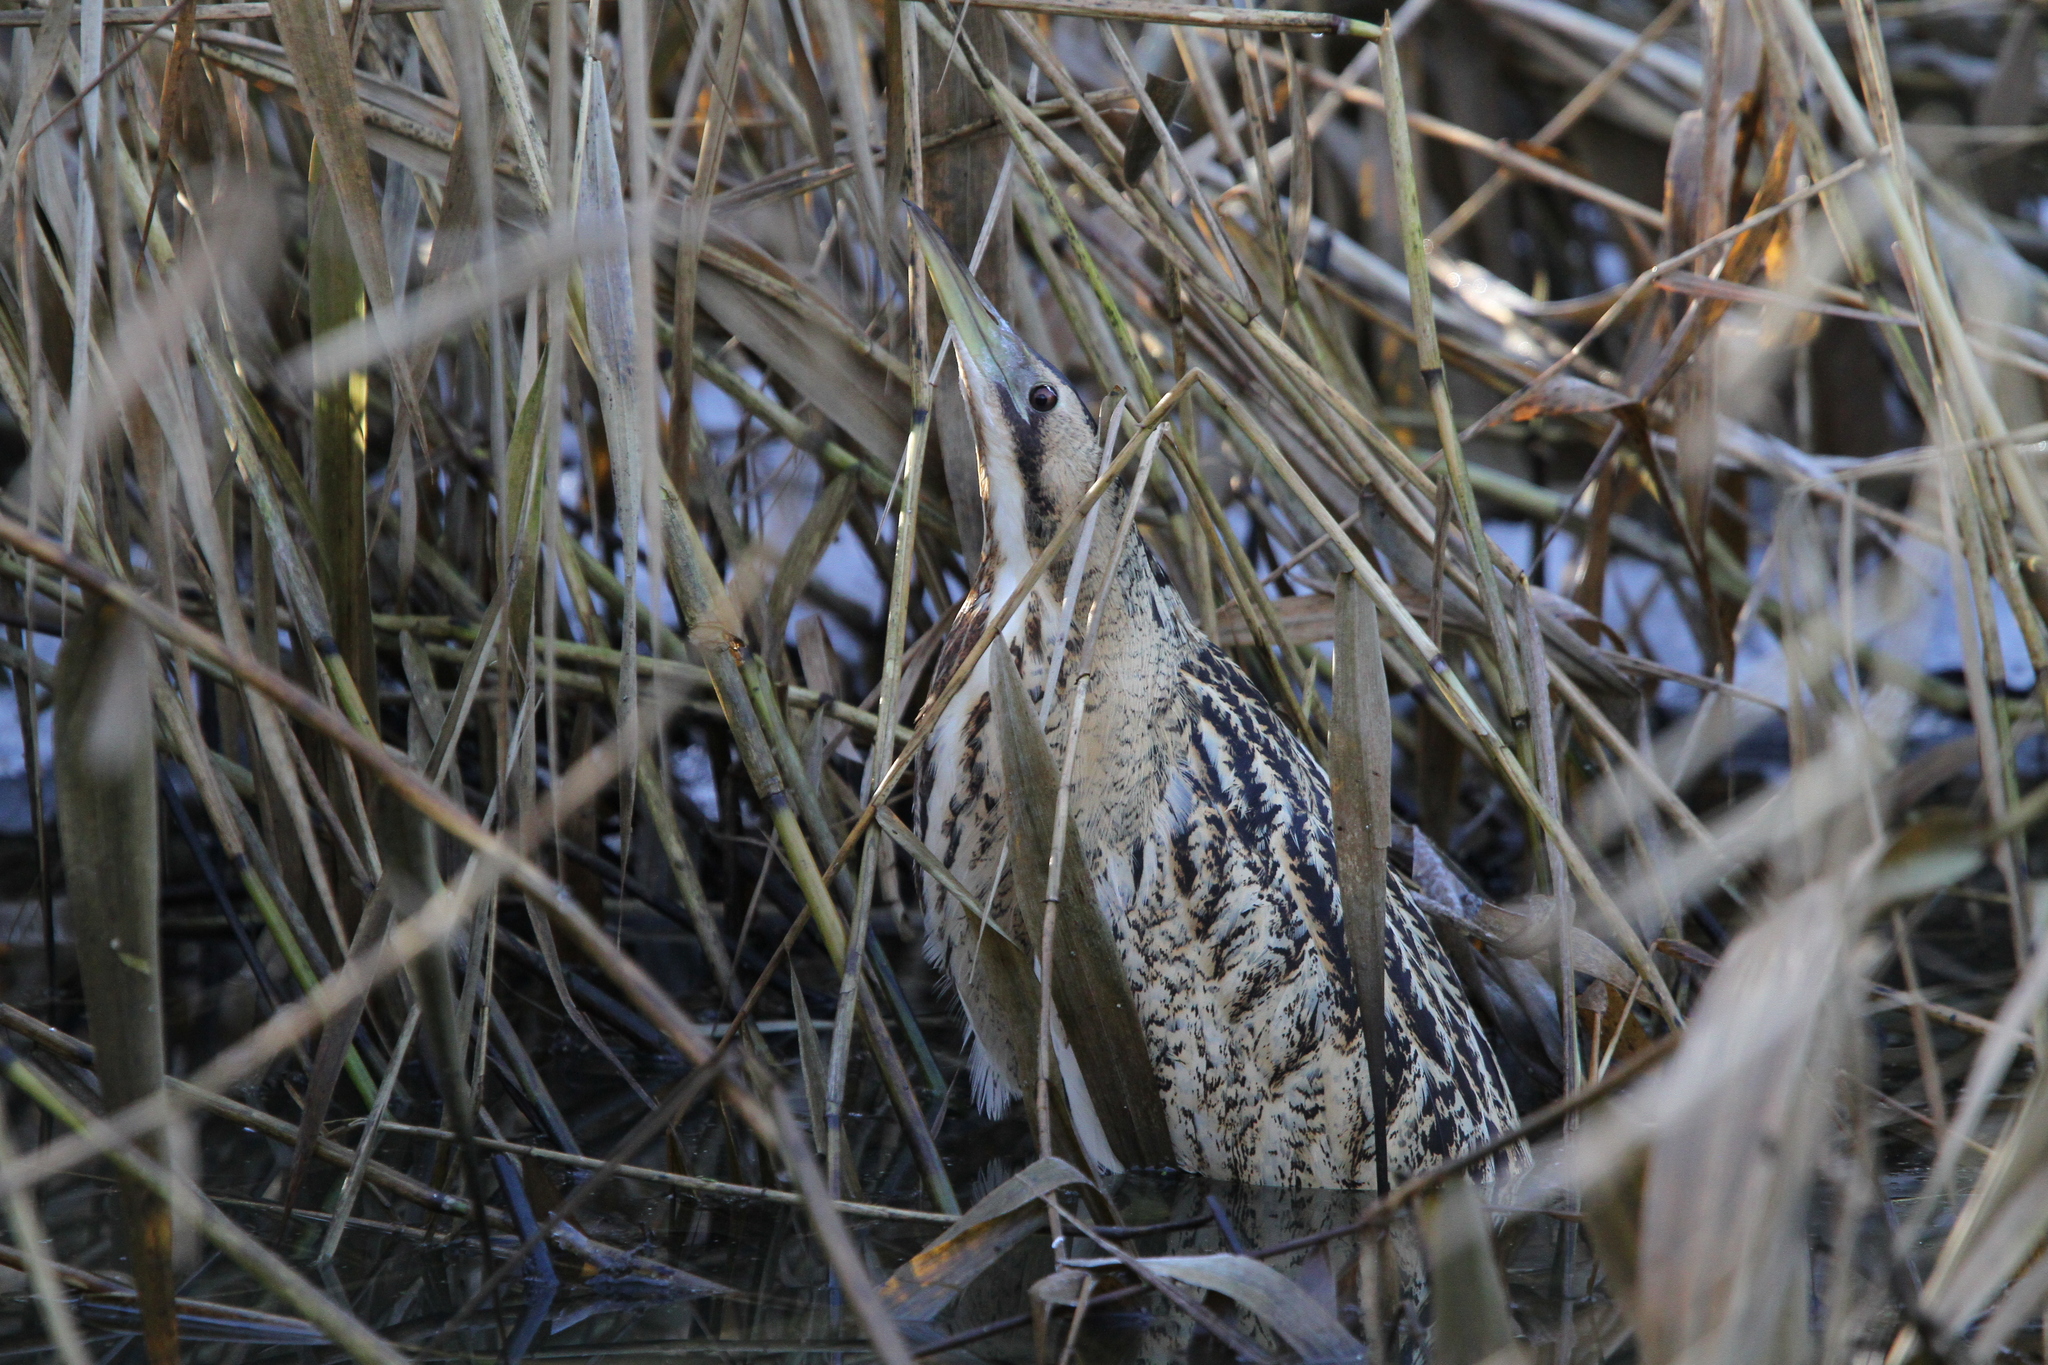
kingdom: Animalia
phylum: Chordata
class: Aves
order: Pelecaniformes
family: Ardeidae
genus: Botaurus
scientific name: Botaurus stellaris
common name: Eurasian bittern
